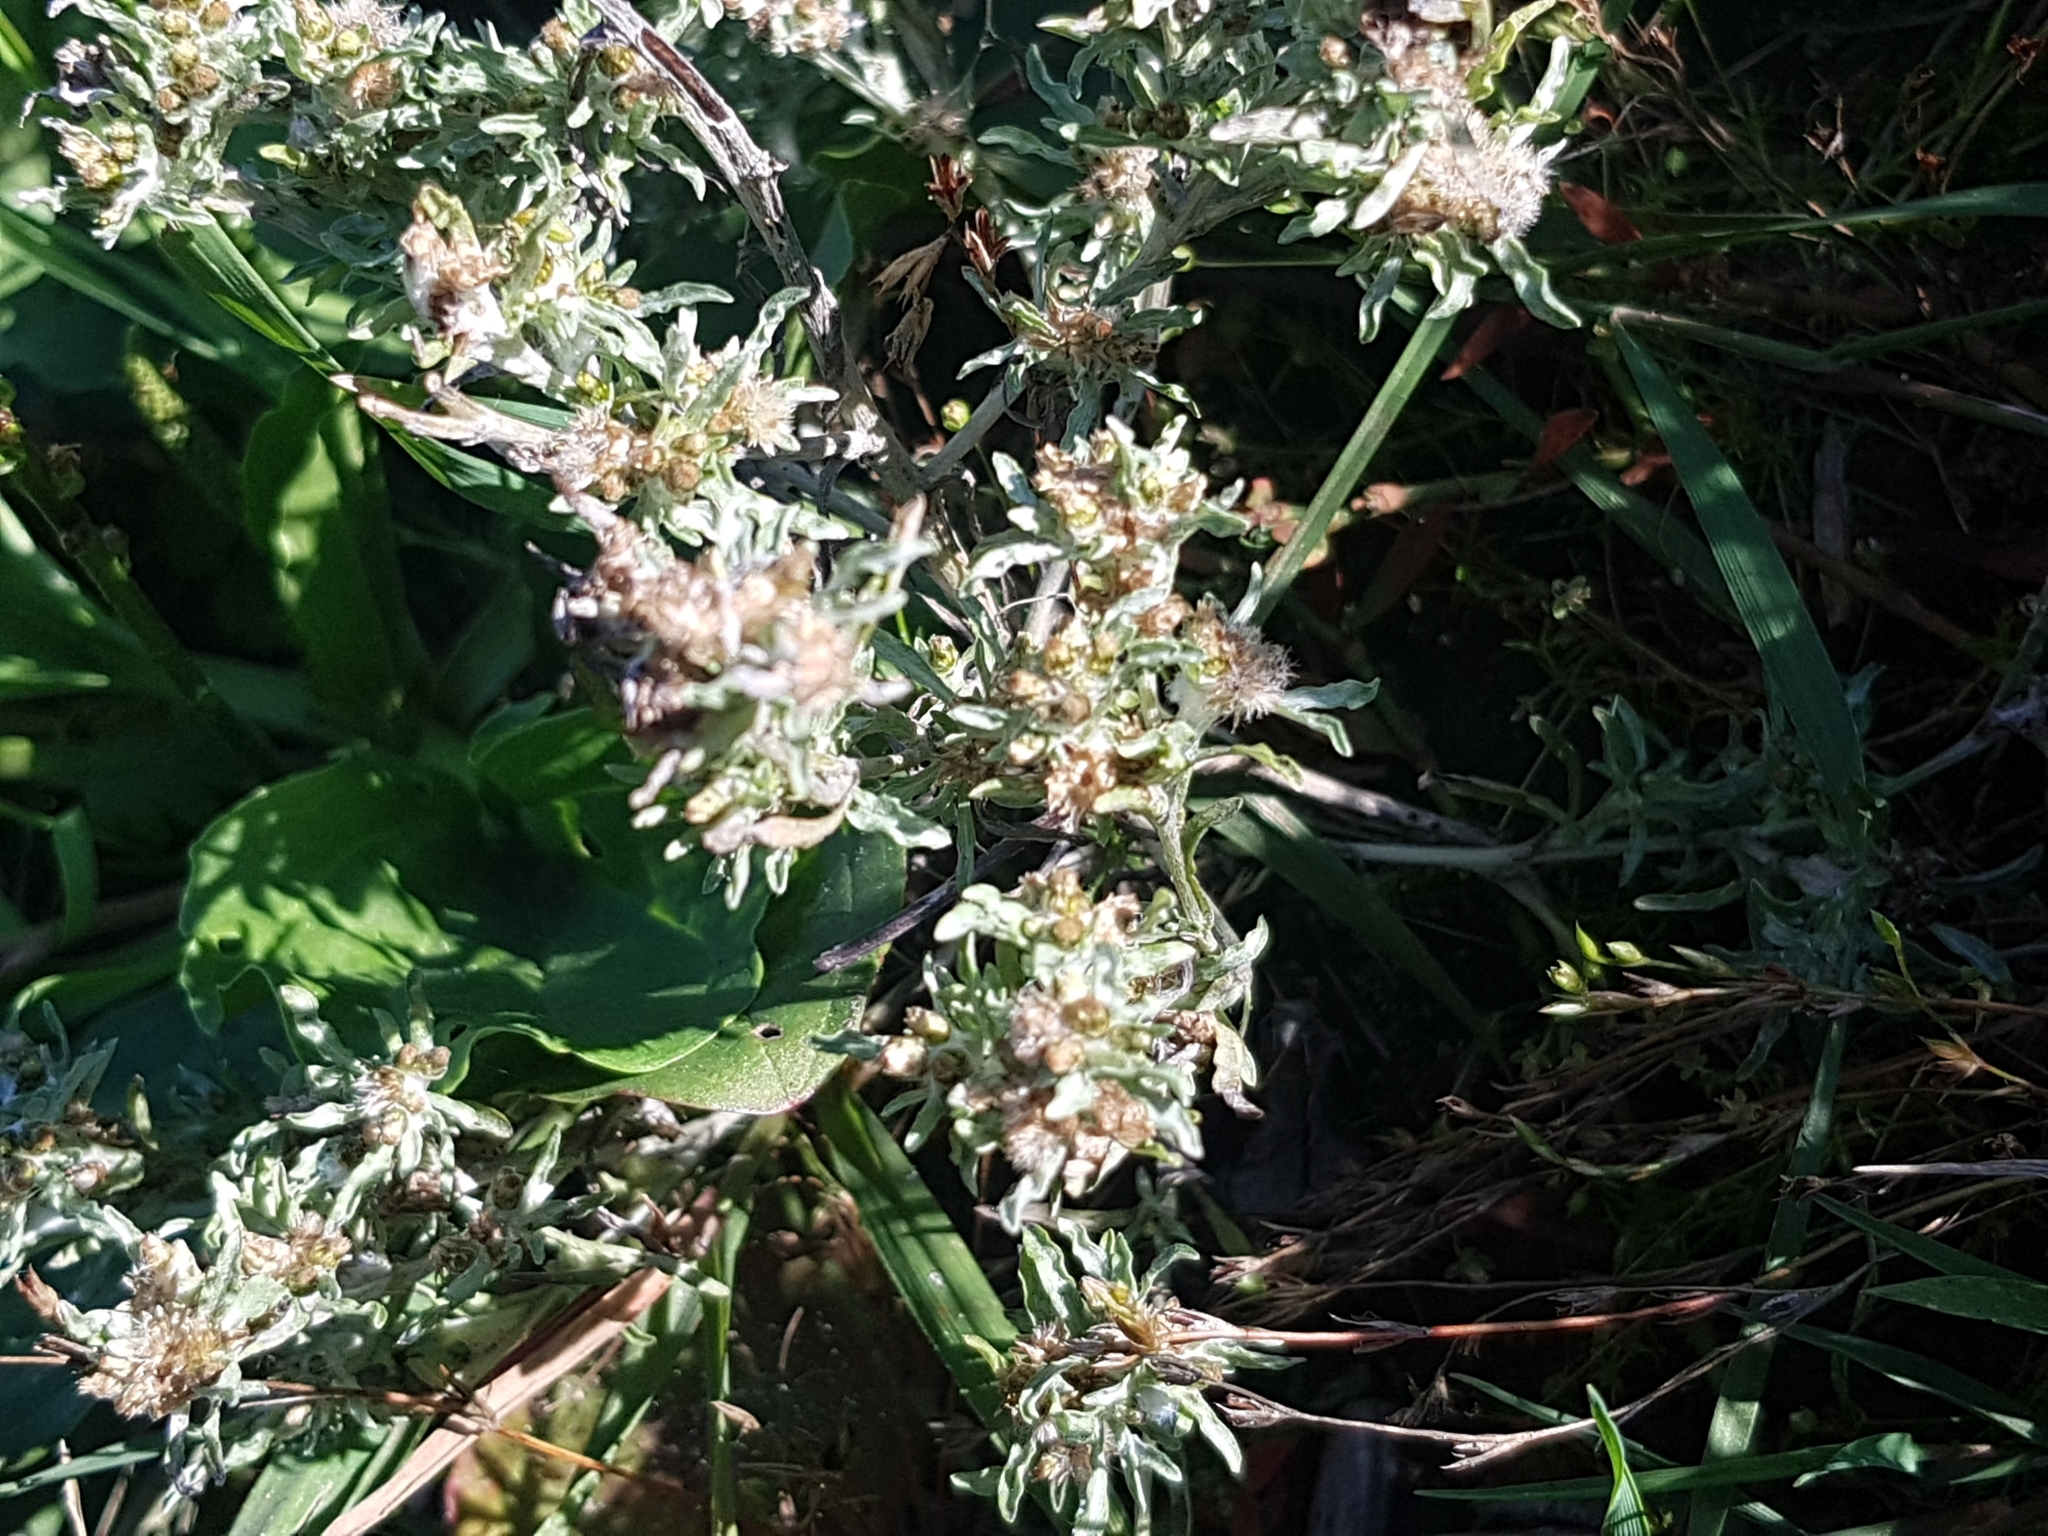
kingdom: Plantae
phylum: Tracheophyta
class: Magnoliopsida
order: Asterales
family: Asteraceae
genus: Gnaphalium
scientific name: Gnaphalium uliginosum
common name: Marsh cudweed
